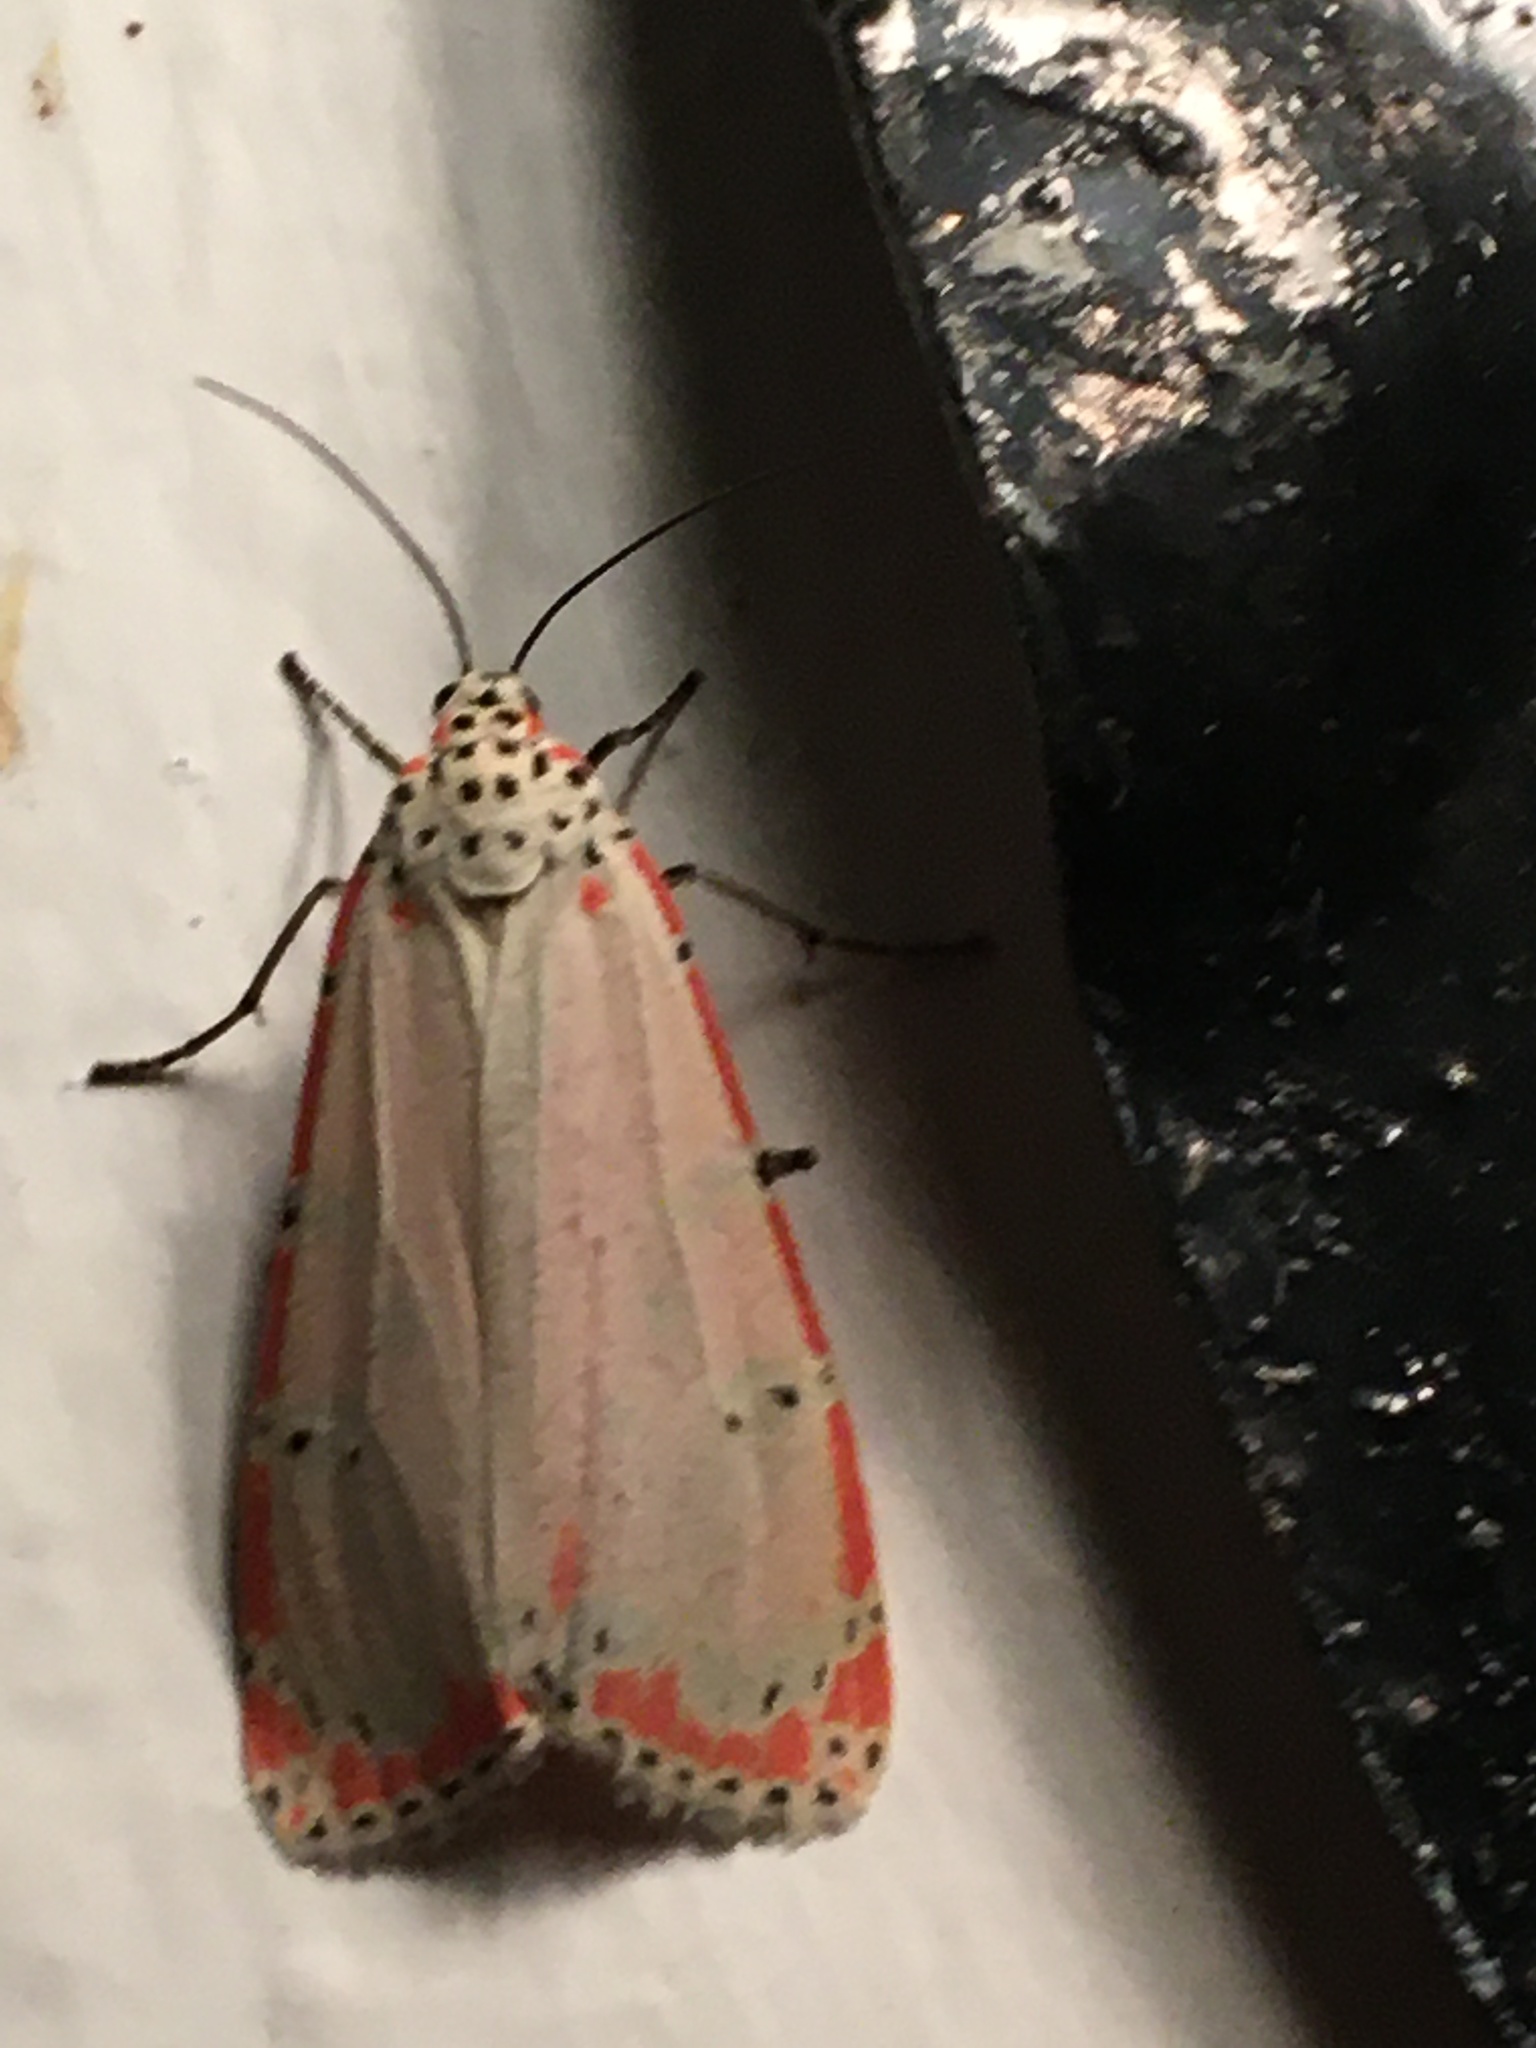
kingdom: Animalia
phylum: Arthropoda
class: Insecta
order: Lepidoptera
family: Erebidae
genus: Utetheisa
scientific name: Utetheisa ornatrix
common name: Beautiful utetheisa
